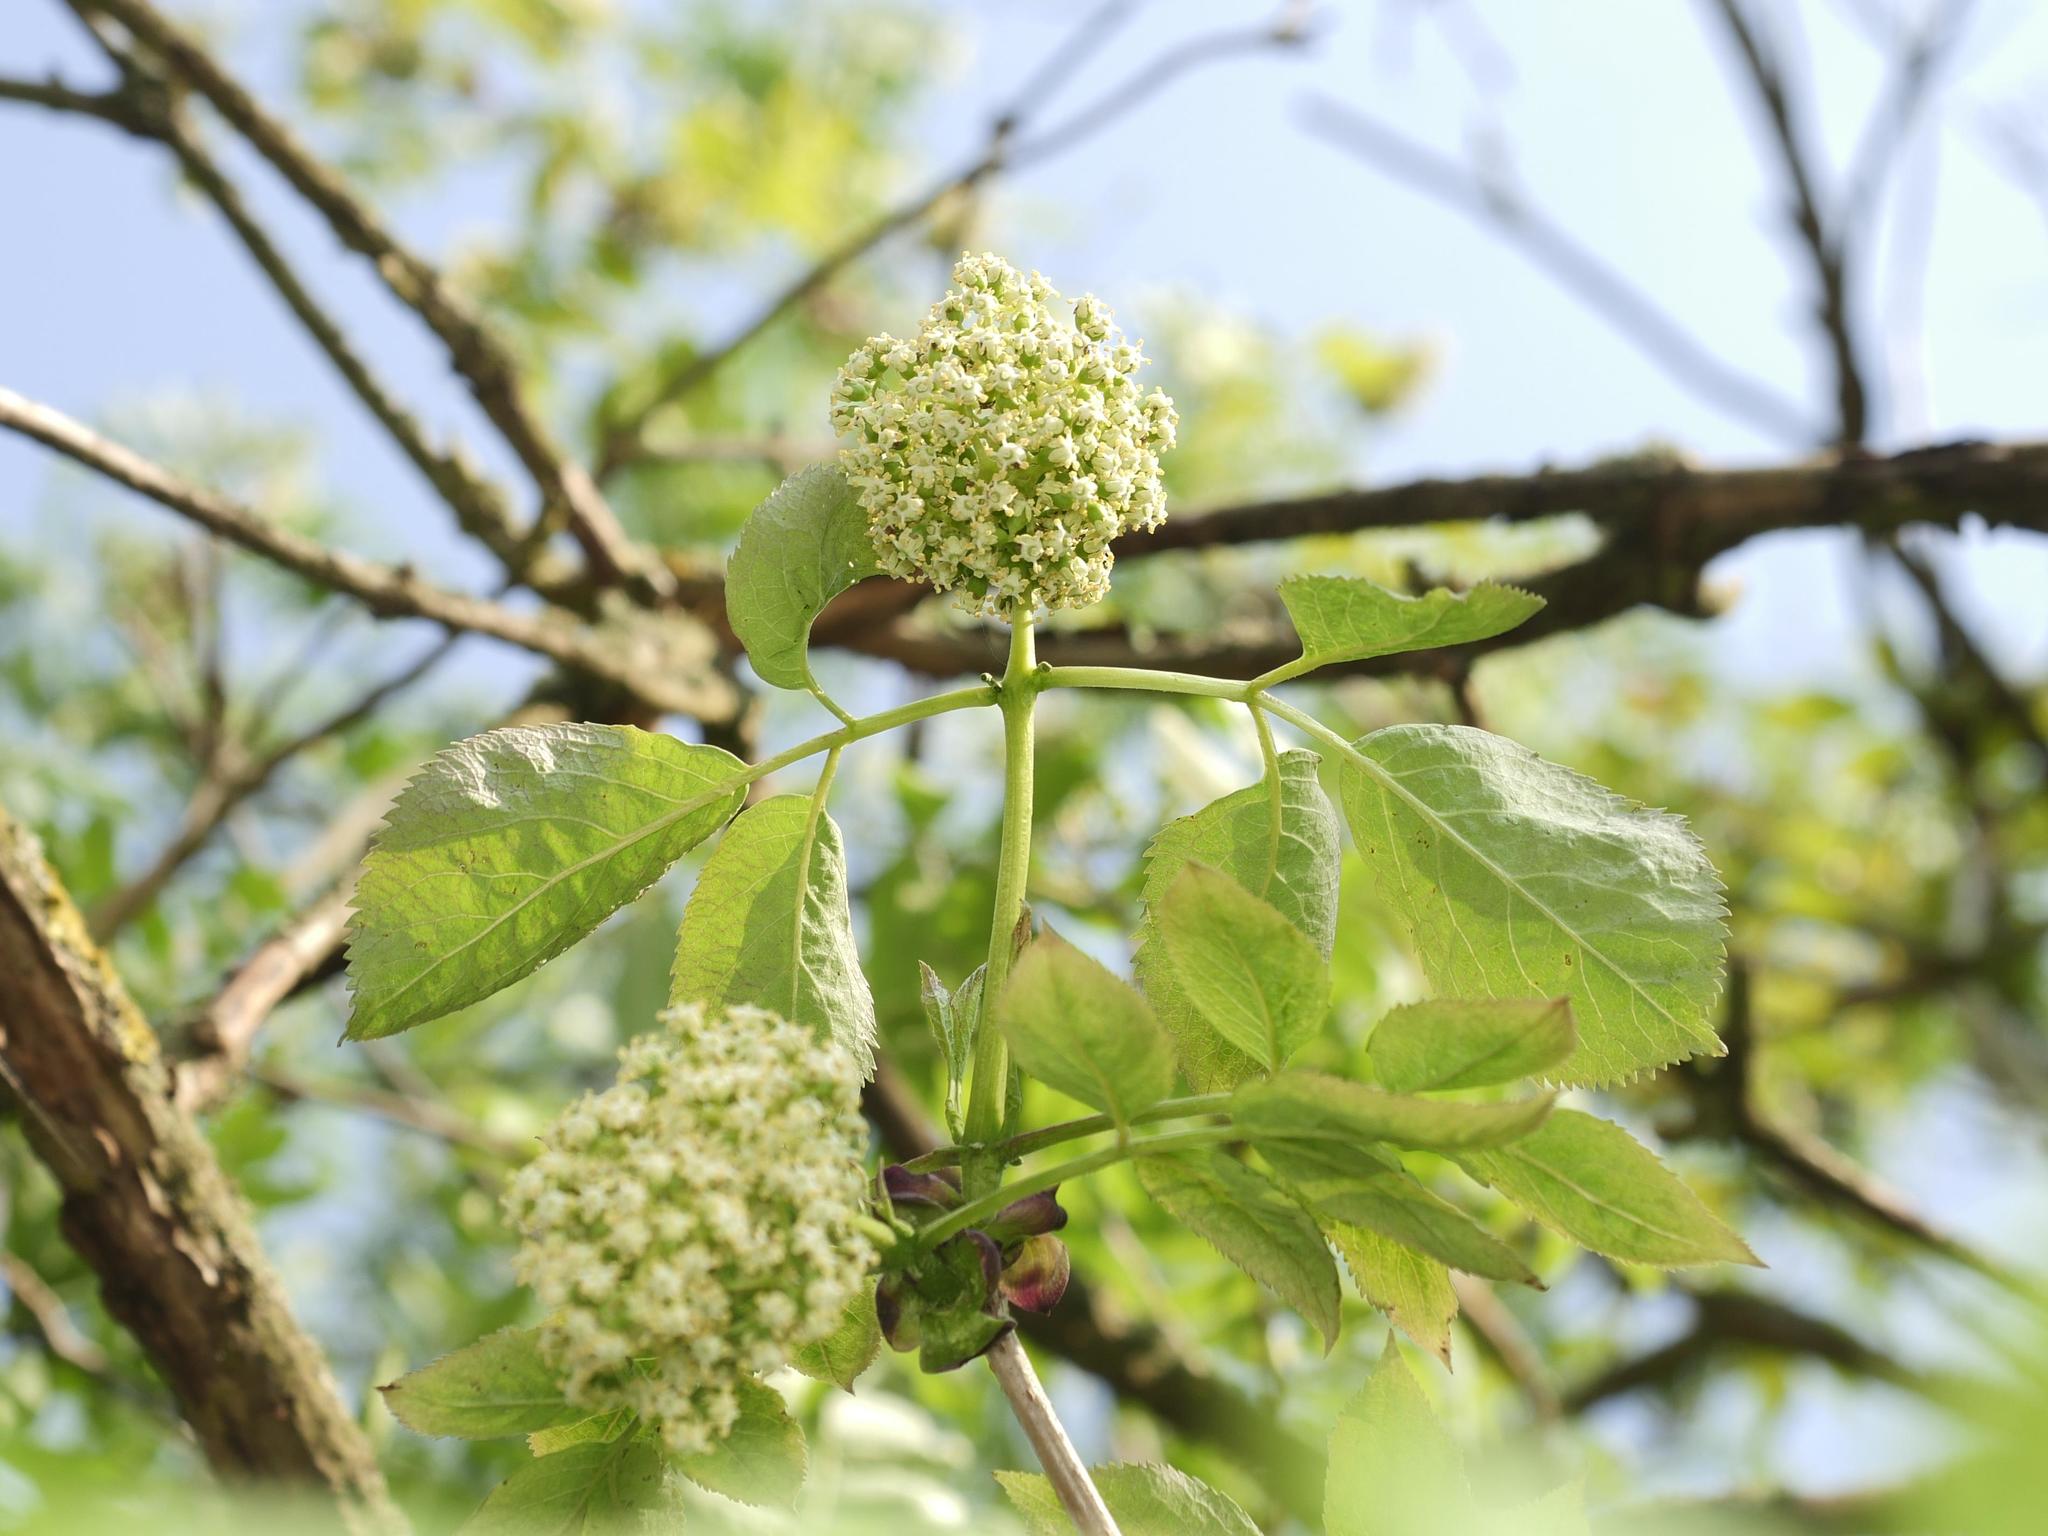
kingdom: Plantae
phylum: Tracheophyta
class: Magnoliopsida
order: Dipsacales
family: Viburnaceae
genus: Sambucus
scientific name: Sambucus racemosa
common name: Red-berried elder
